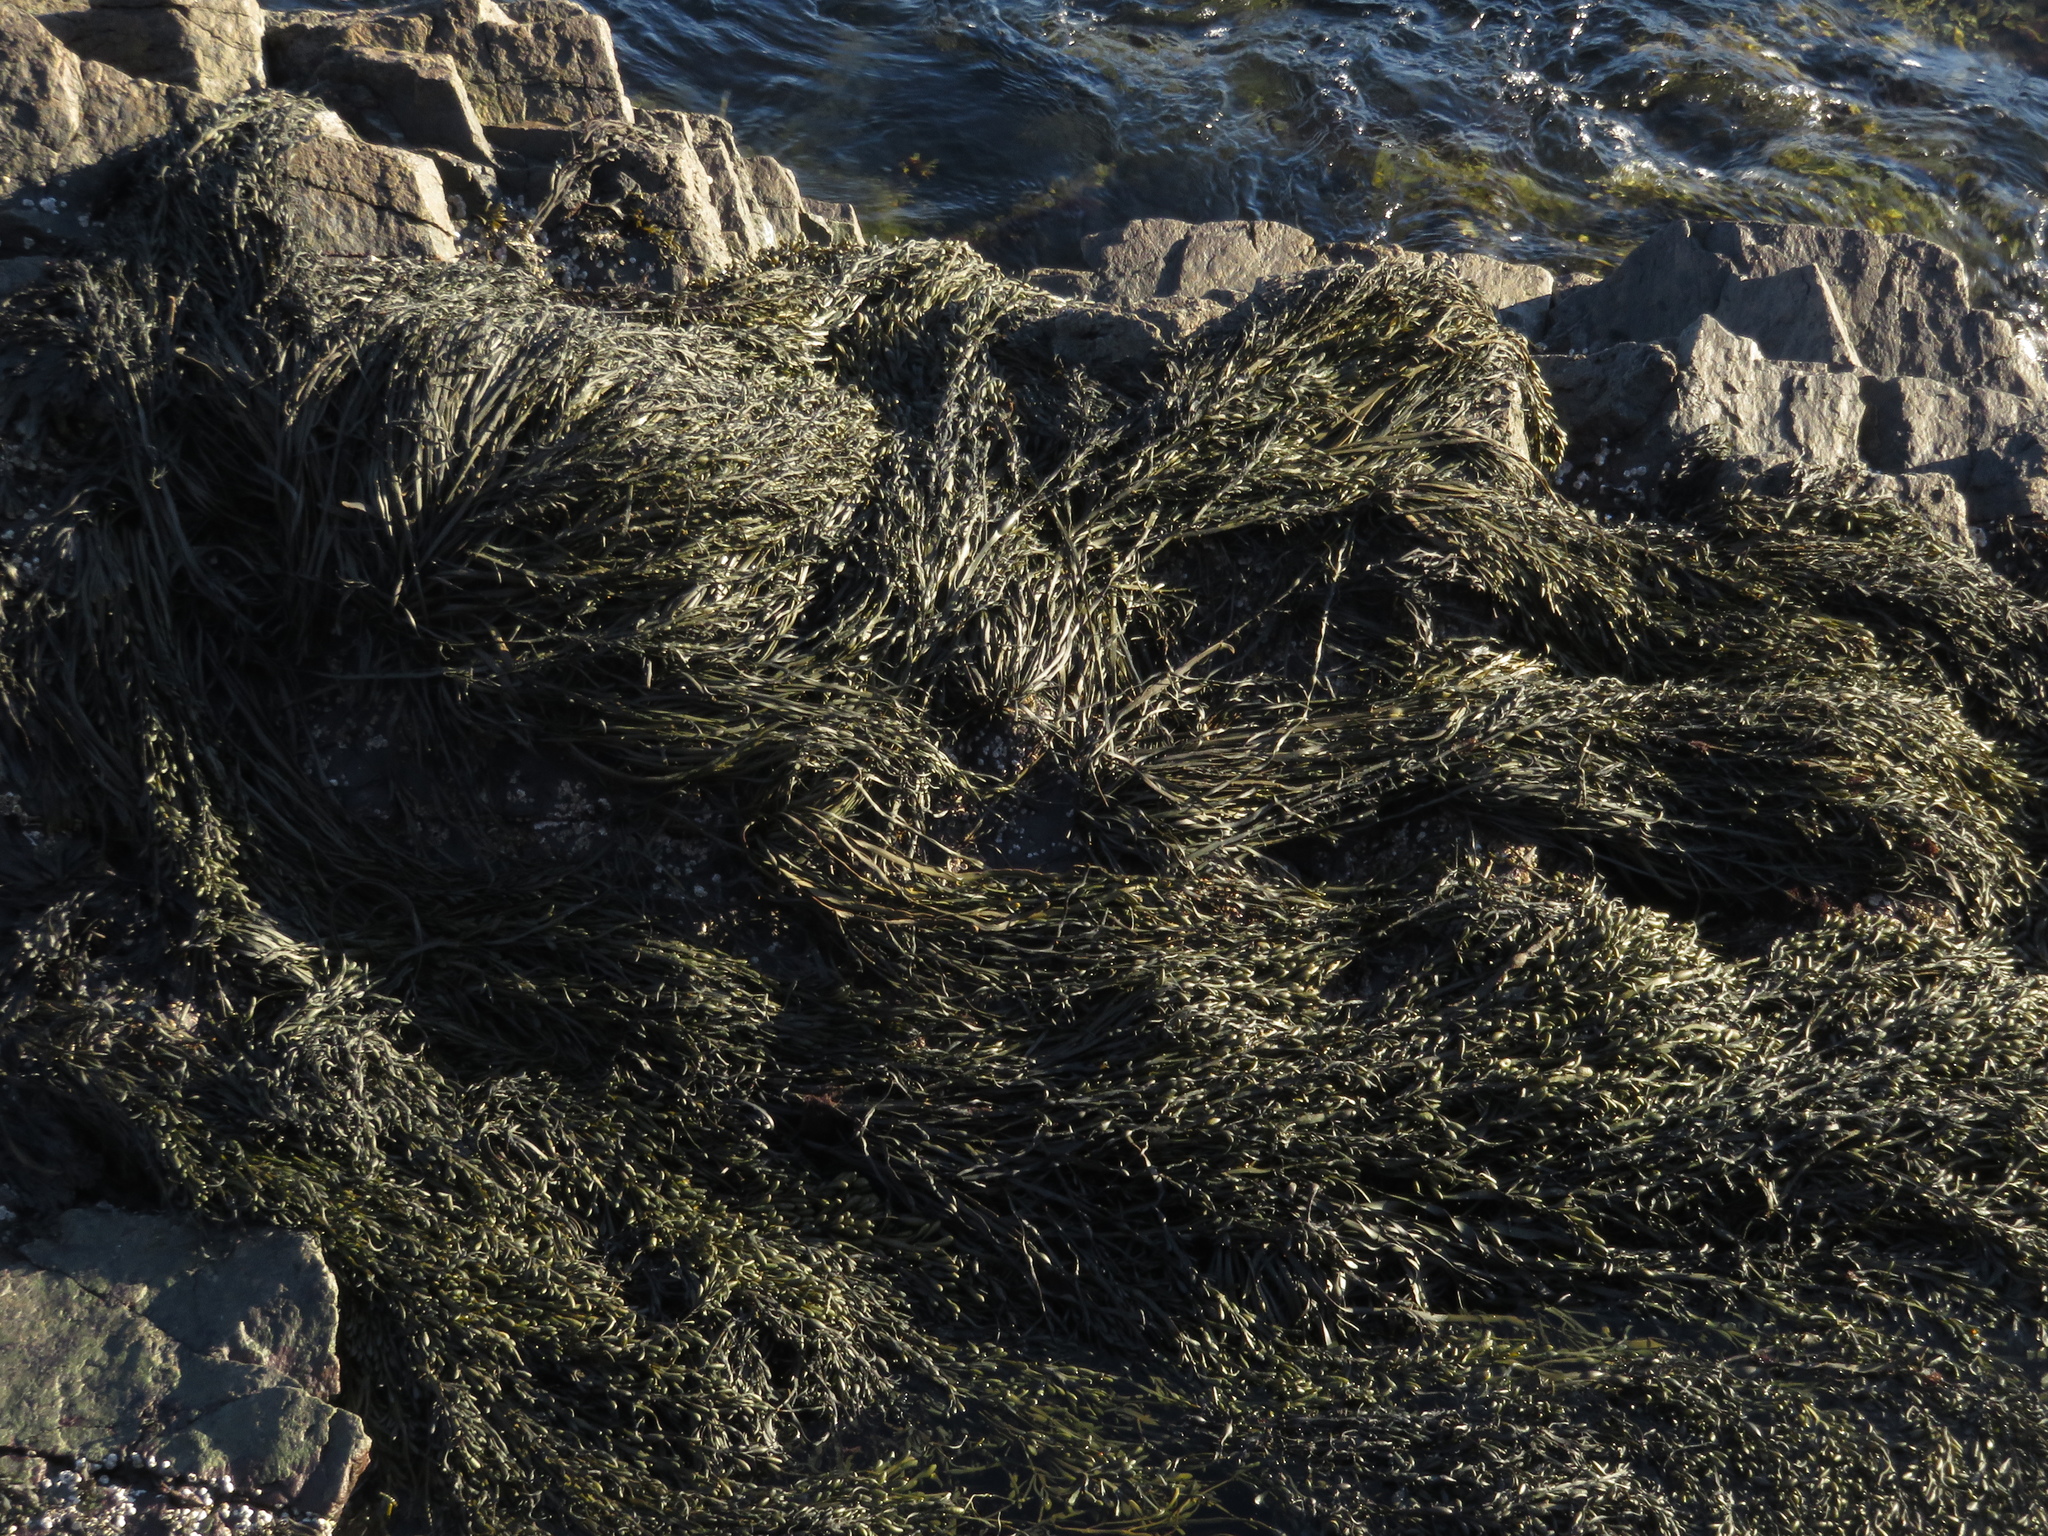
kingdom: Chromista
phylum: Ochrophyta
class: Phaeophyceae
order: Fucales
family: Fucaceae
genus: Ascophyllum
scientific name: Ascophyllum nodosum
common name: Knotted wrack
